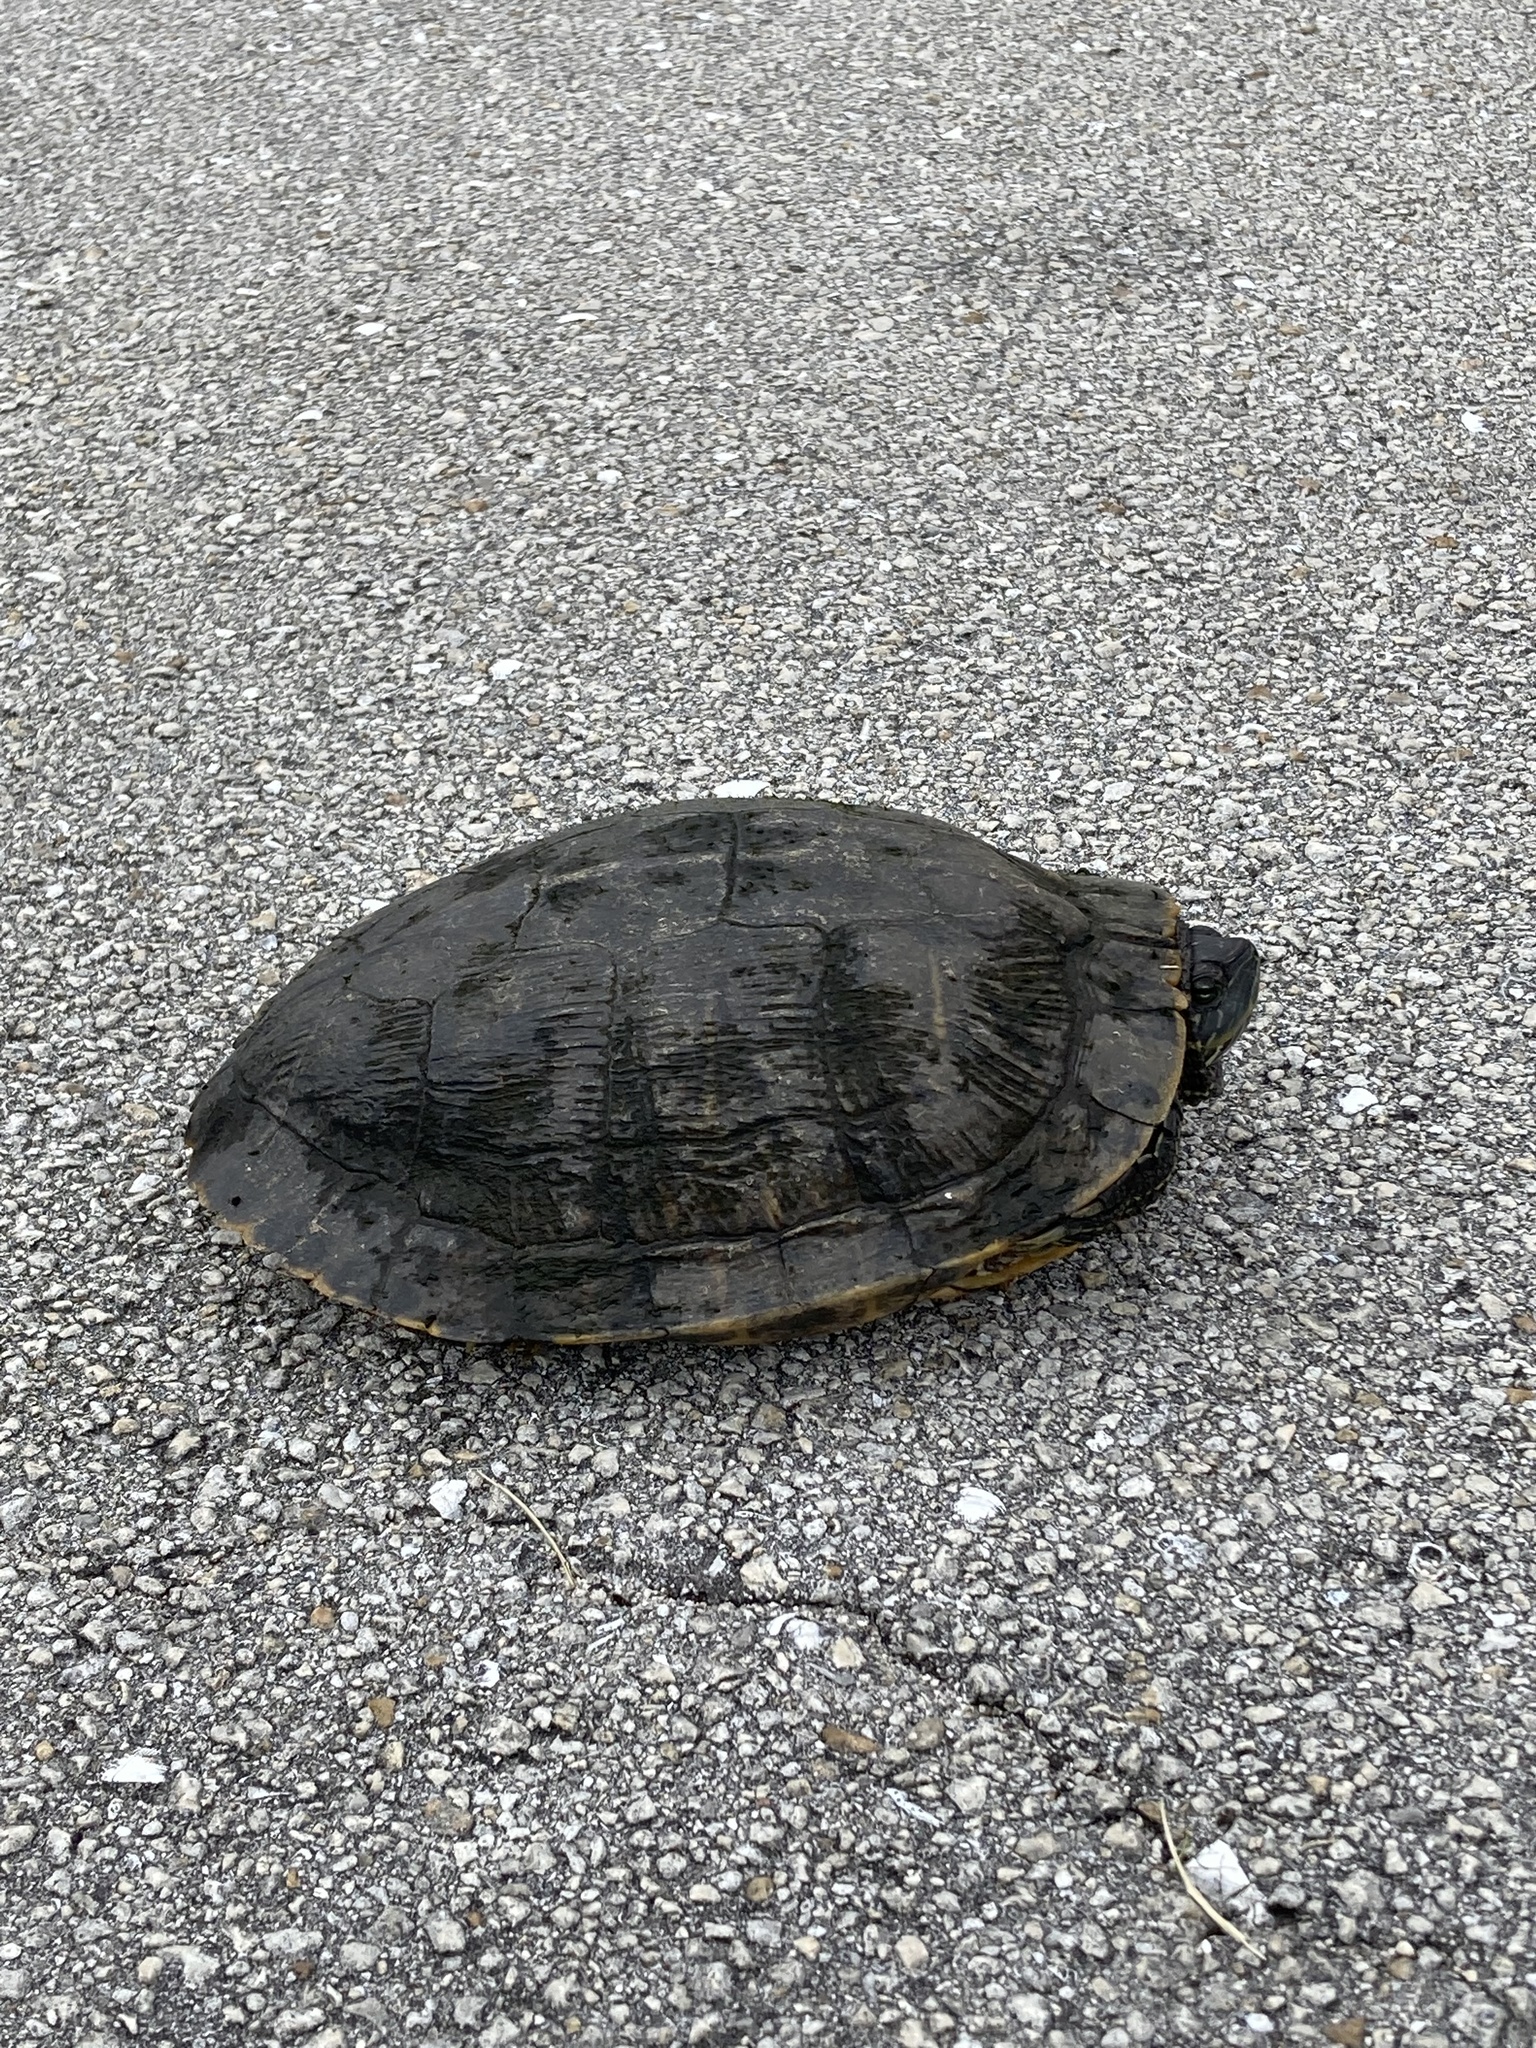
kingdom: Animalia
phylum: Chordata
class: Testudines
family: Emydidae
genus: Trachemys
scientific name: Trachemys scripta
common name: Slider
